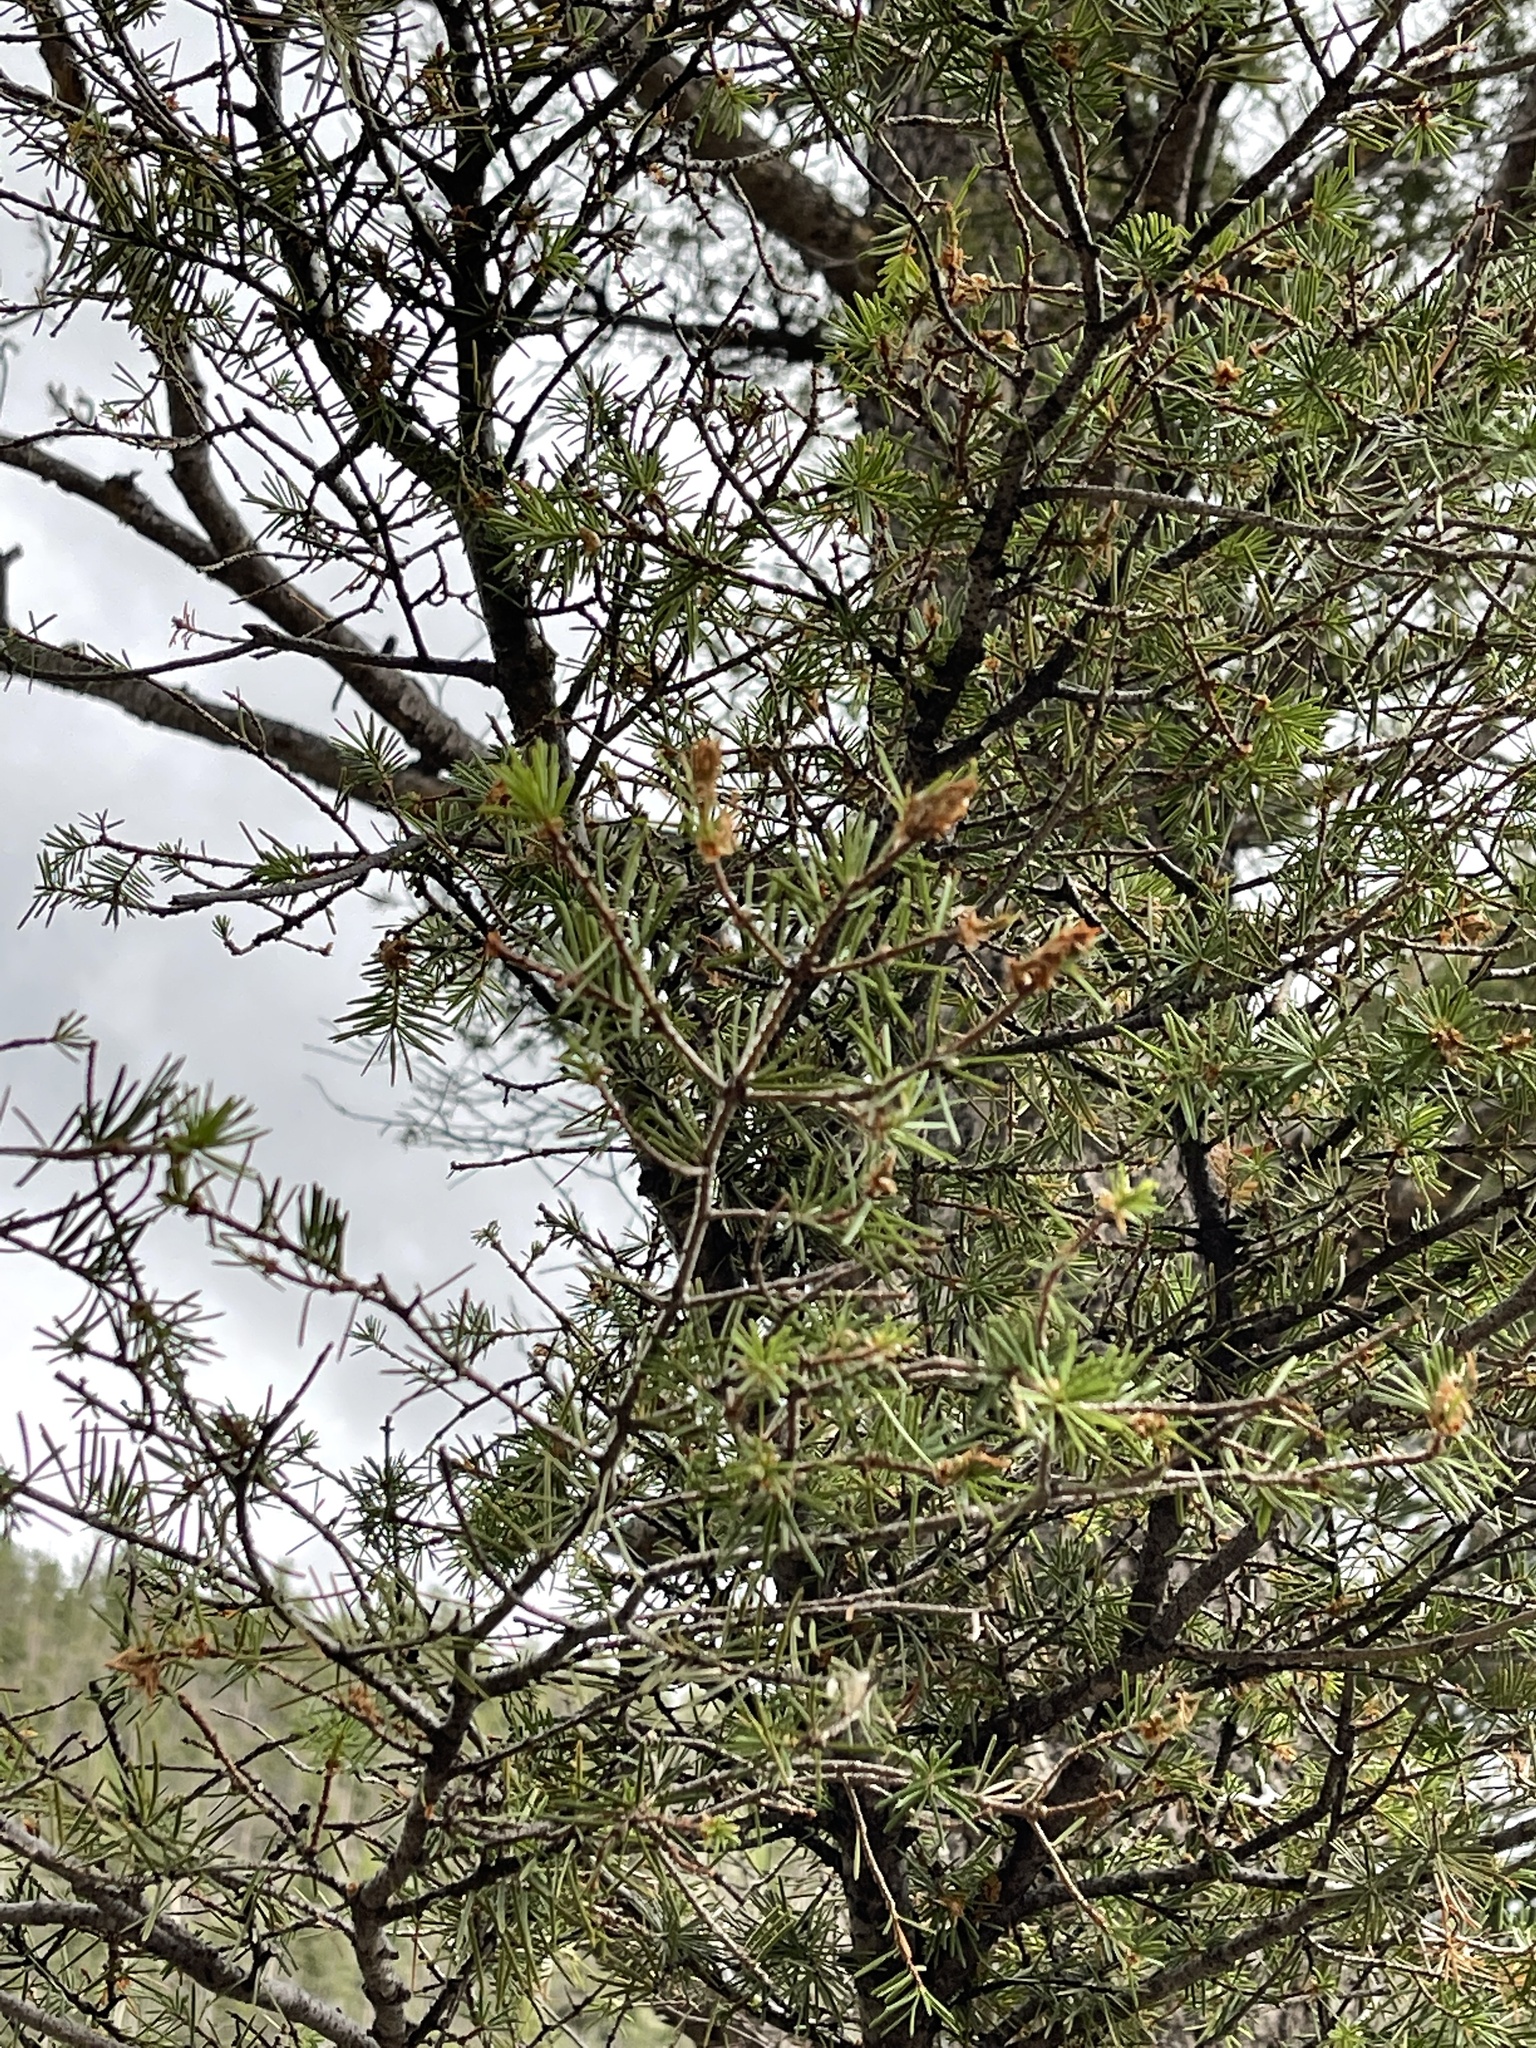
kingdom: Plantae
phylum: Tracheophyta
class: Pinopsida
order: Pinales
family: Pinaceae
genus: Pseudotsuga
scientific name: Pseudotsuga menziesii
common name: Douglas fir
